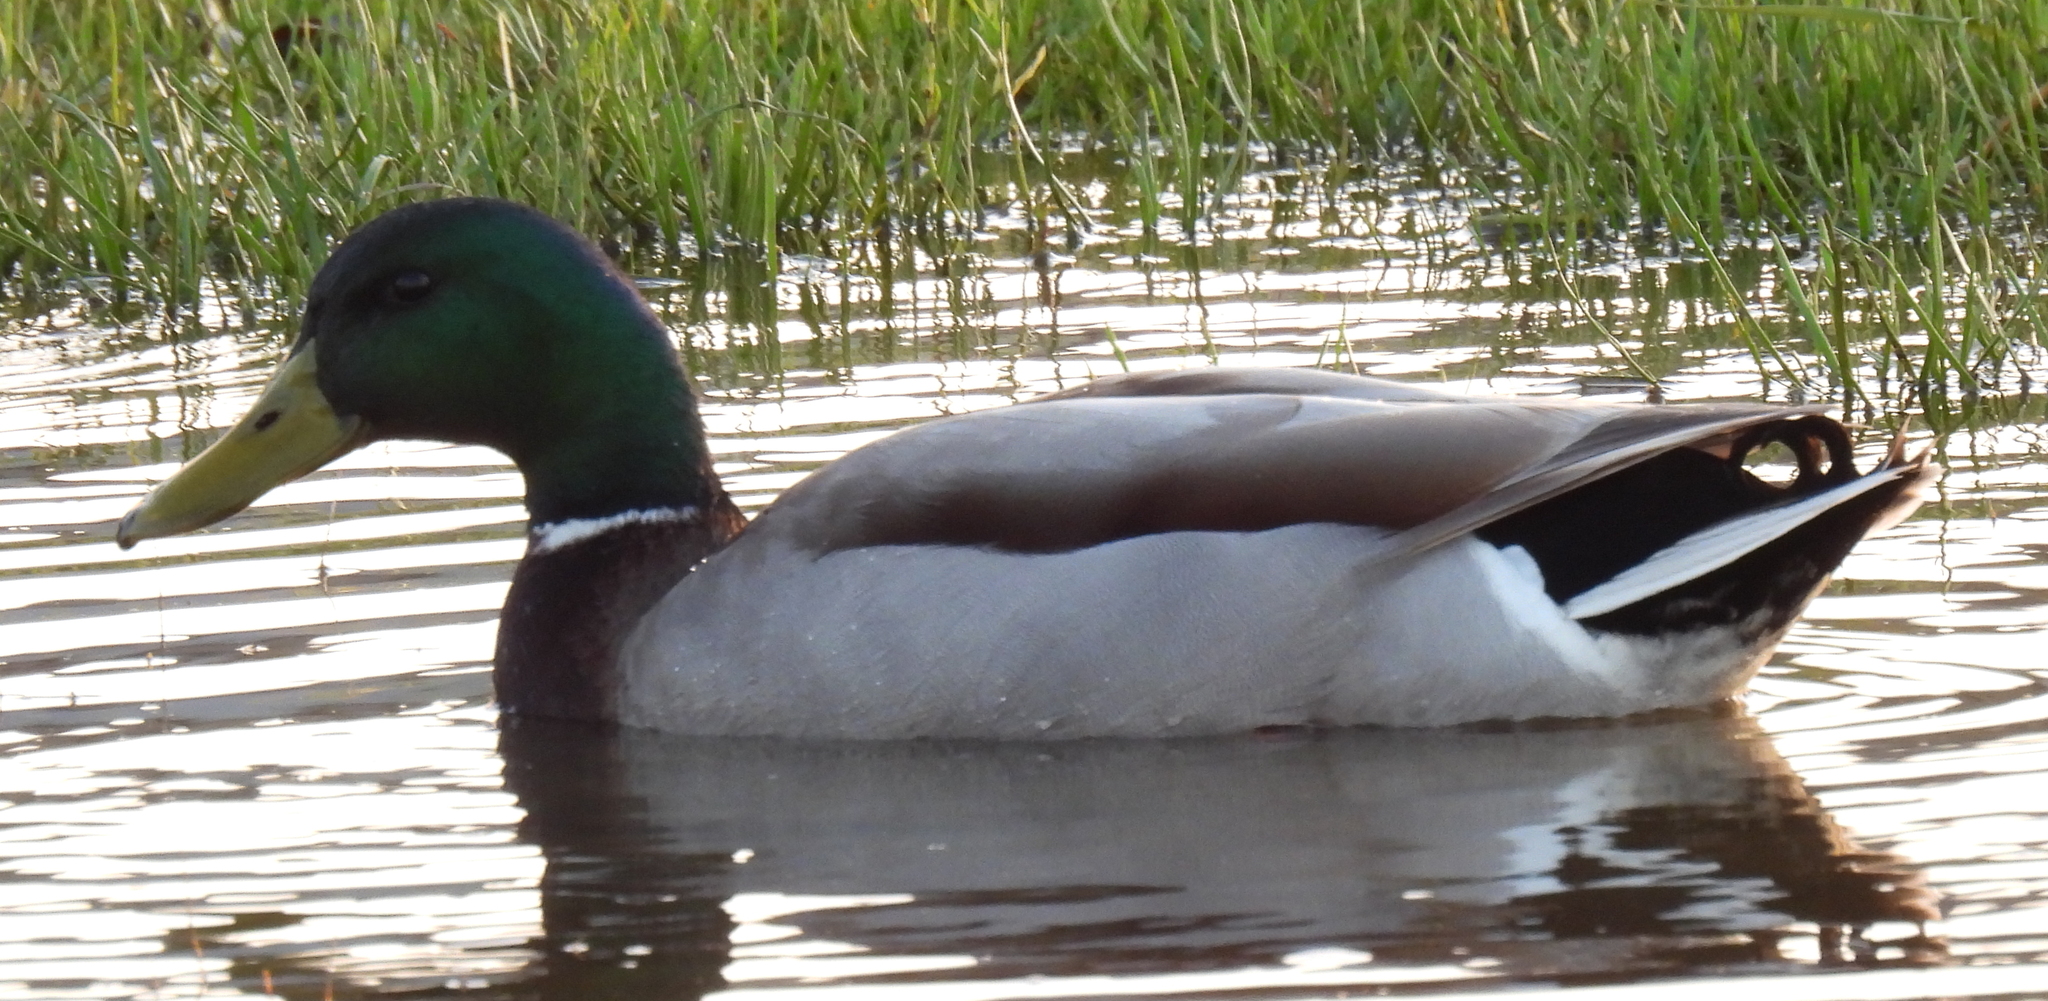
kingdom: Animalia
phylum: Chordata
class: Aves
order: Anseriformes
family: Anatidae
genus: Anas
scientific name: Anas platyrhynchos
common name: Mallard
